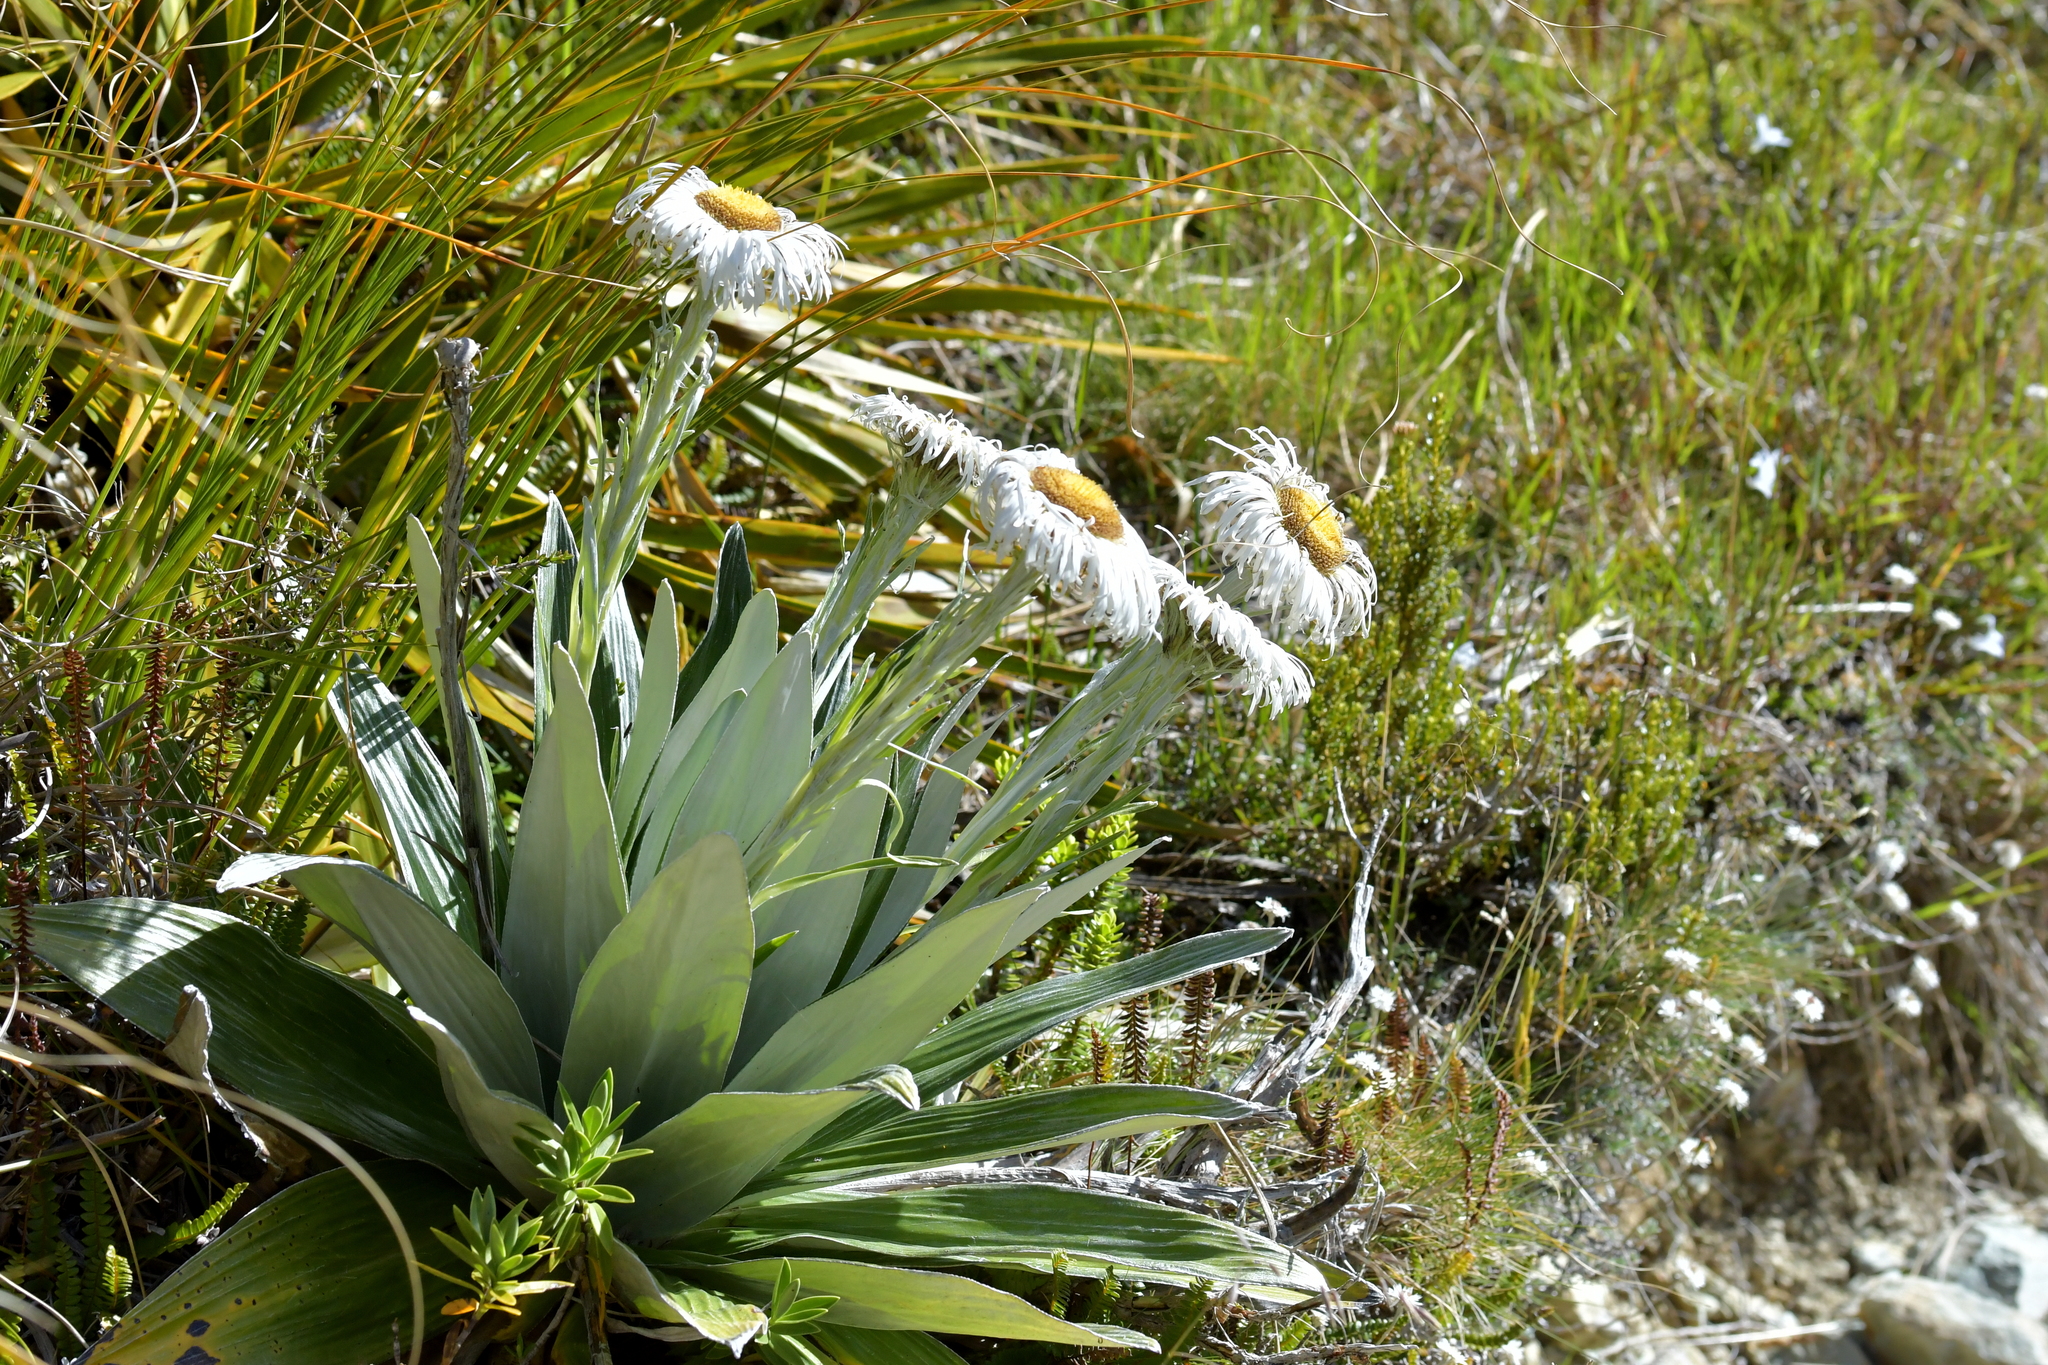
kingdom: Plantae
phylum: Tracheophyta
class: Magnoliopsida
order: Asterales
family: Asteraceae
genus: Celmisia
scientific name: Celmisia semicordata
